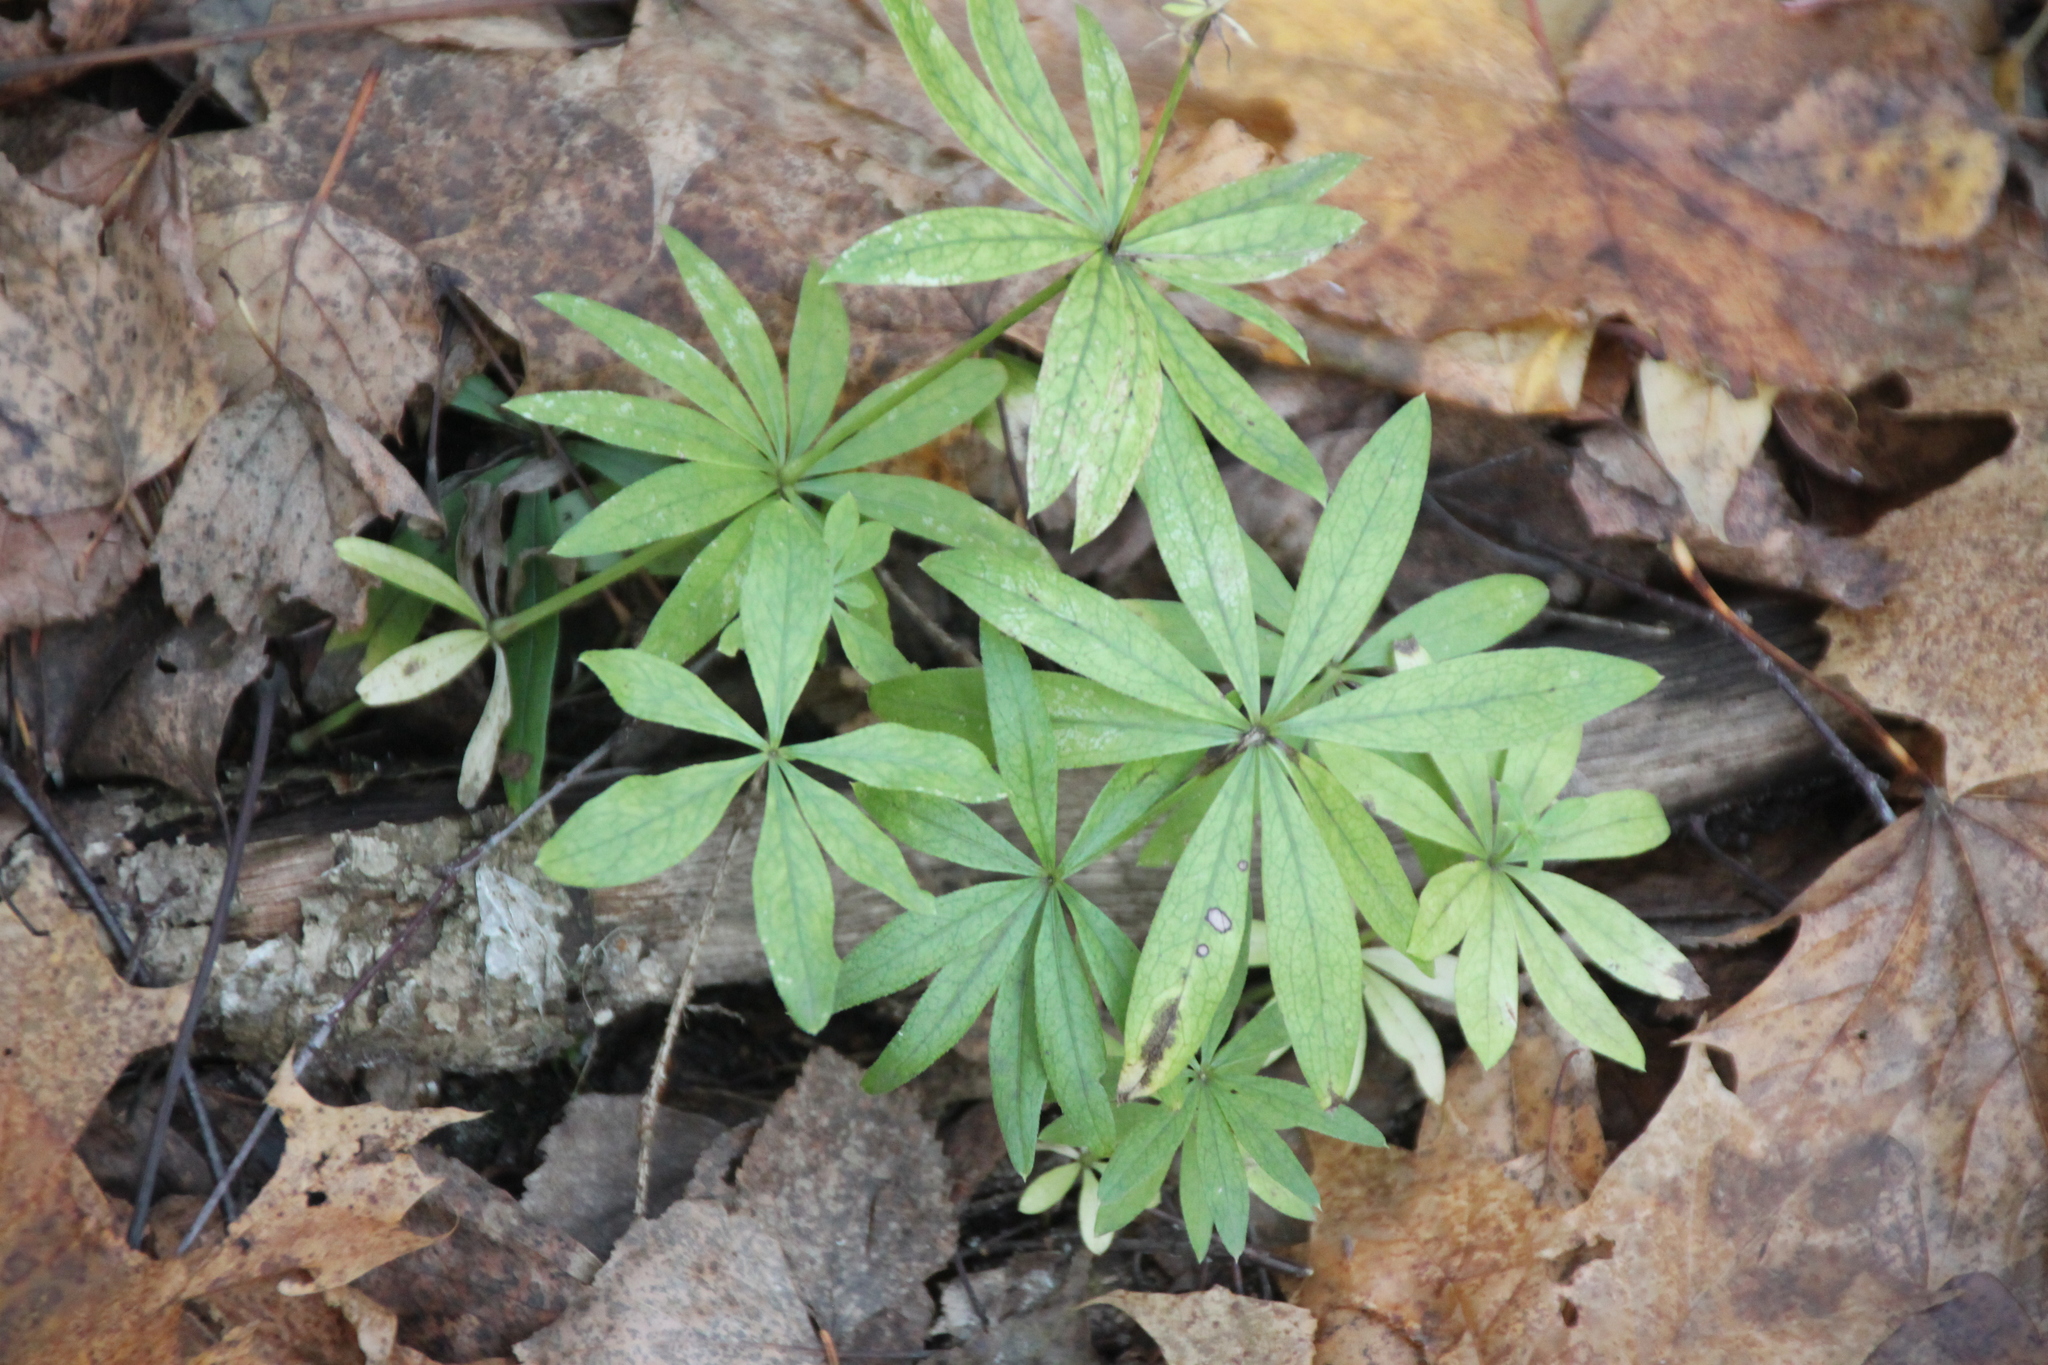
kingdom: Plantae
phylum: Tracheophyta
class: Magnoliopsida
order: Gentianales
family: Rubiaceae
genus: Galium
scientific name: Galium odoratum
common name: Sweet woodruff
